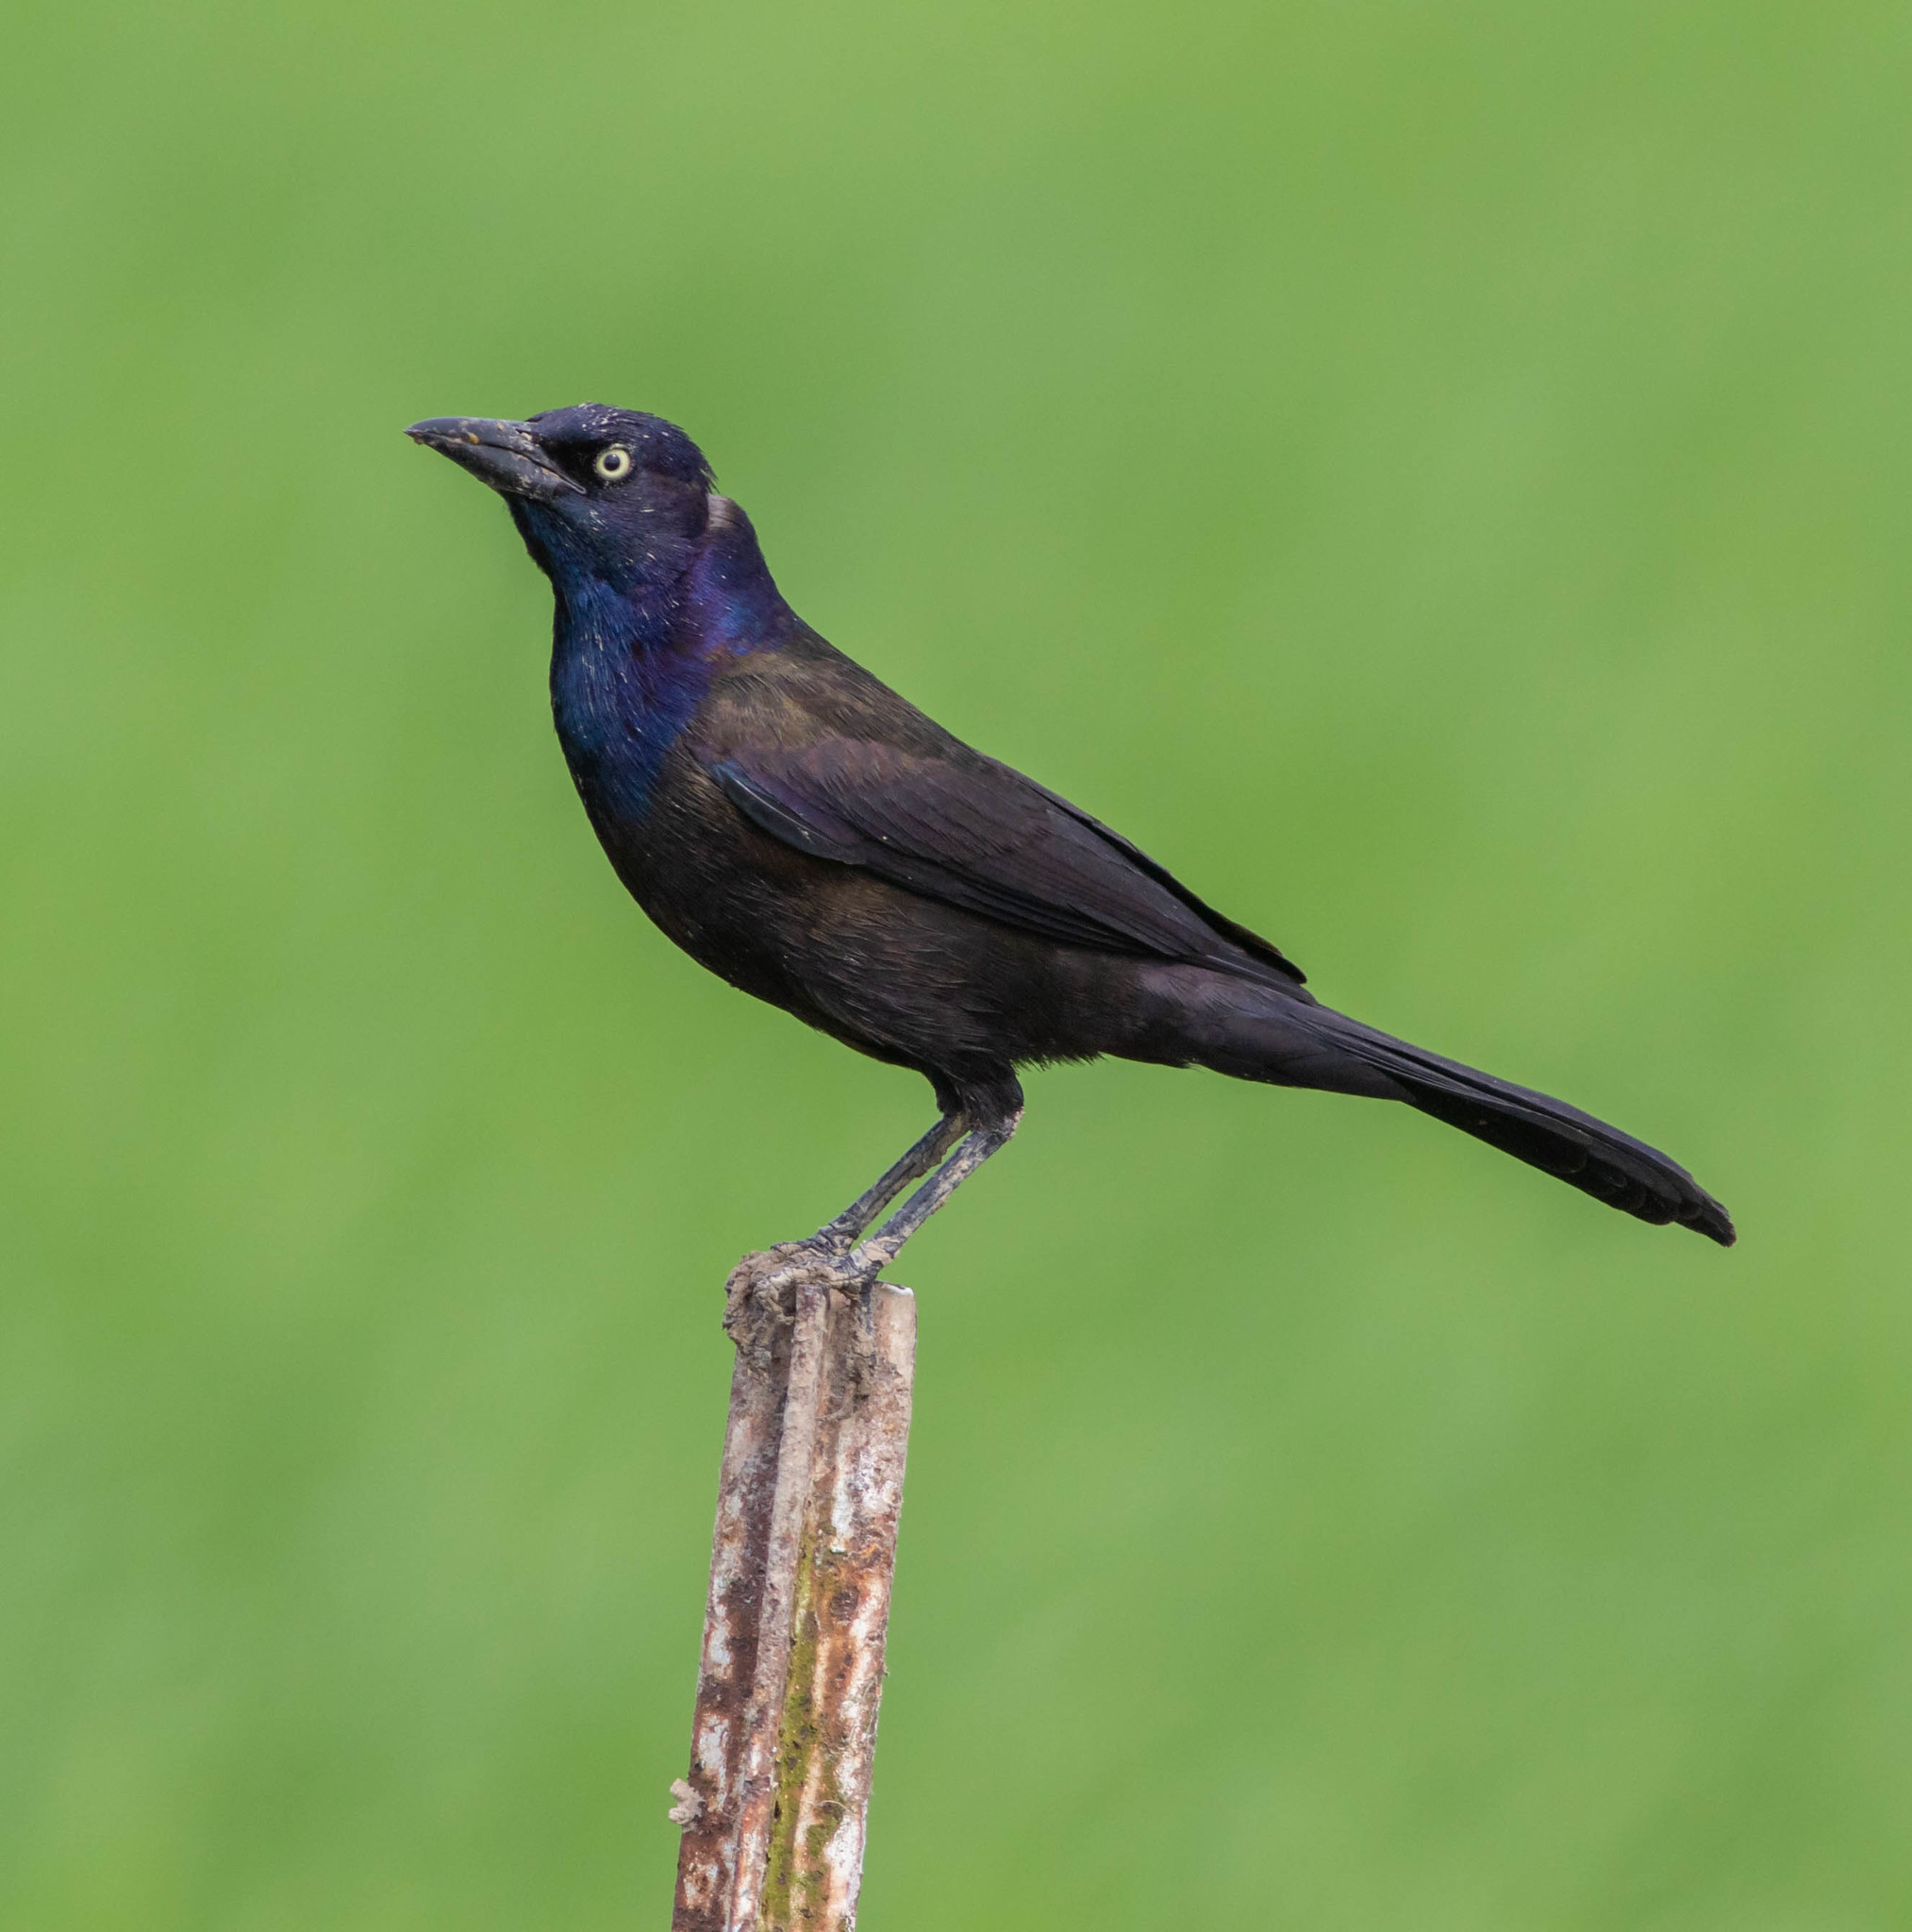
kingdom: Animalia
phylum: Chordata
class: Aves
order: Passeriformes
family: Icteridae
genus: Quiscalus
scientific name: Quiscalus quiscula
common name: Common grackle
